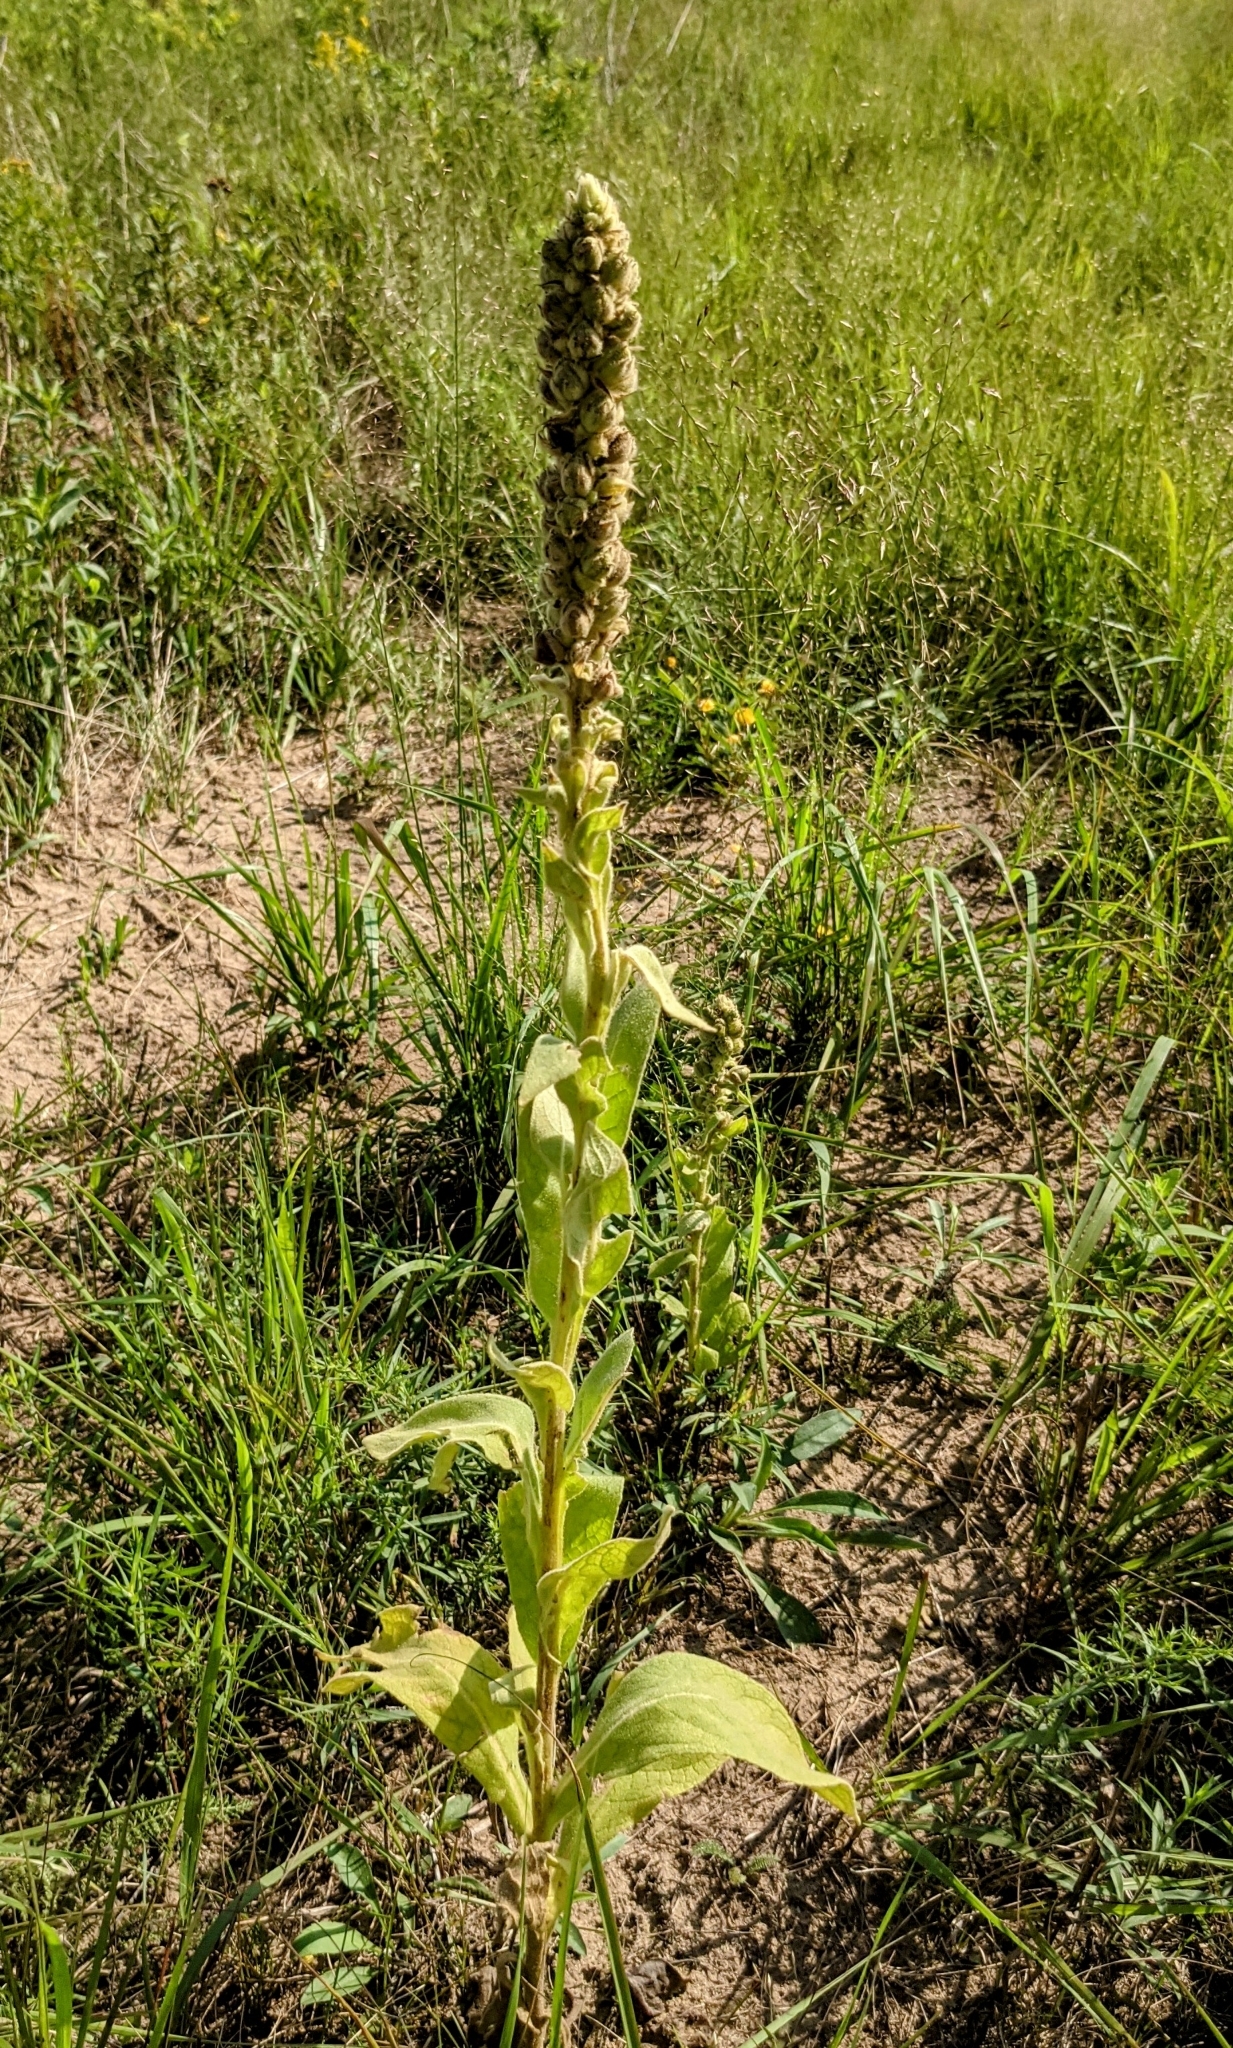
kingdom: Plantae
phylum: Tracheophyta
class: Magnoliopsida
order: Lamiales
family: Scrophulariaceae
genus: Verbascum
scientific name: Verbascum thapsus
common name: Common mullein
